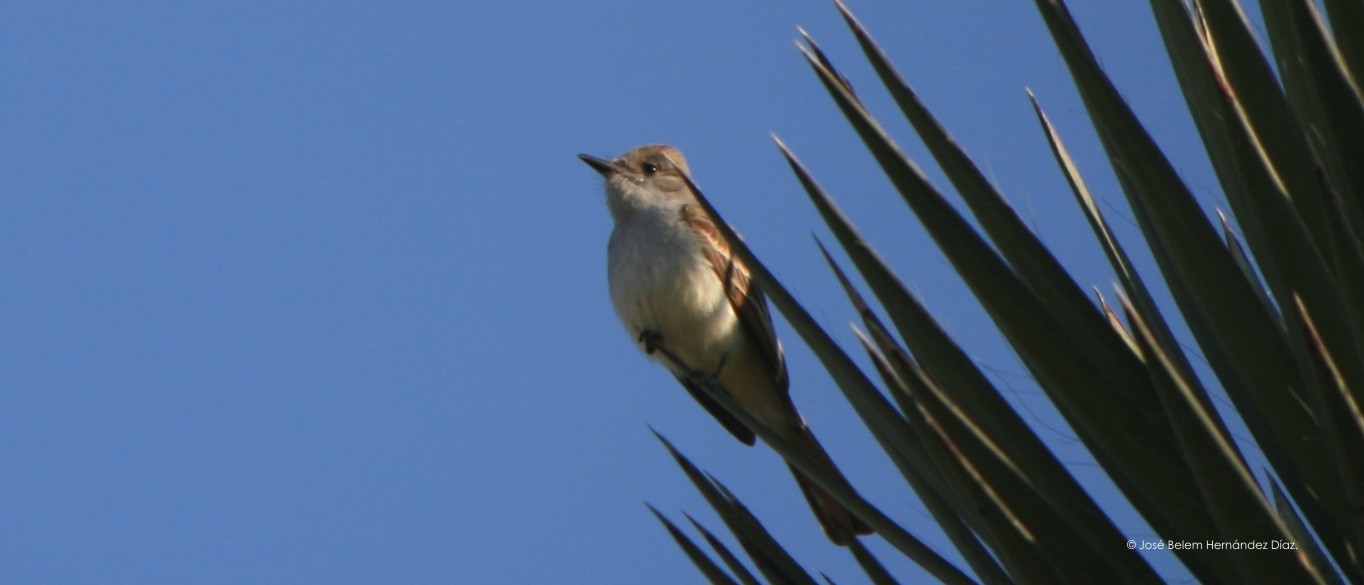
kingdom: Animalia
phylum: Chordata
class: Aves
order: Passeriformes
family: Tyrannidae
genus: Myiarchus
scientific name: Myiarchus cinerascens
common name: Ash-throated flycatcher
